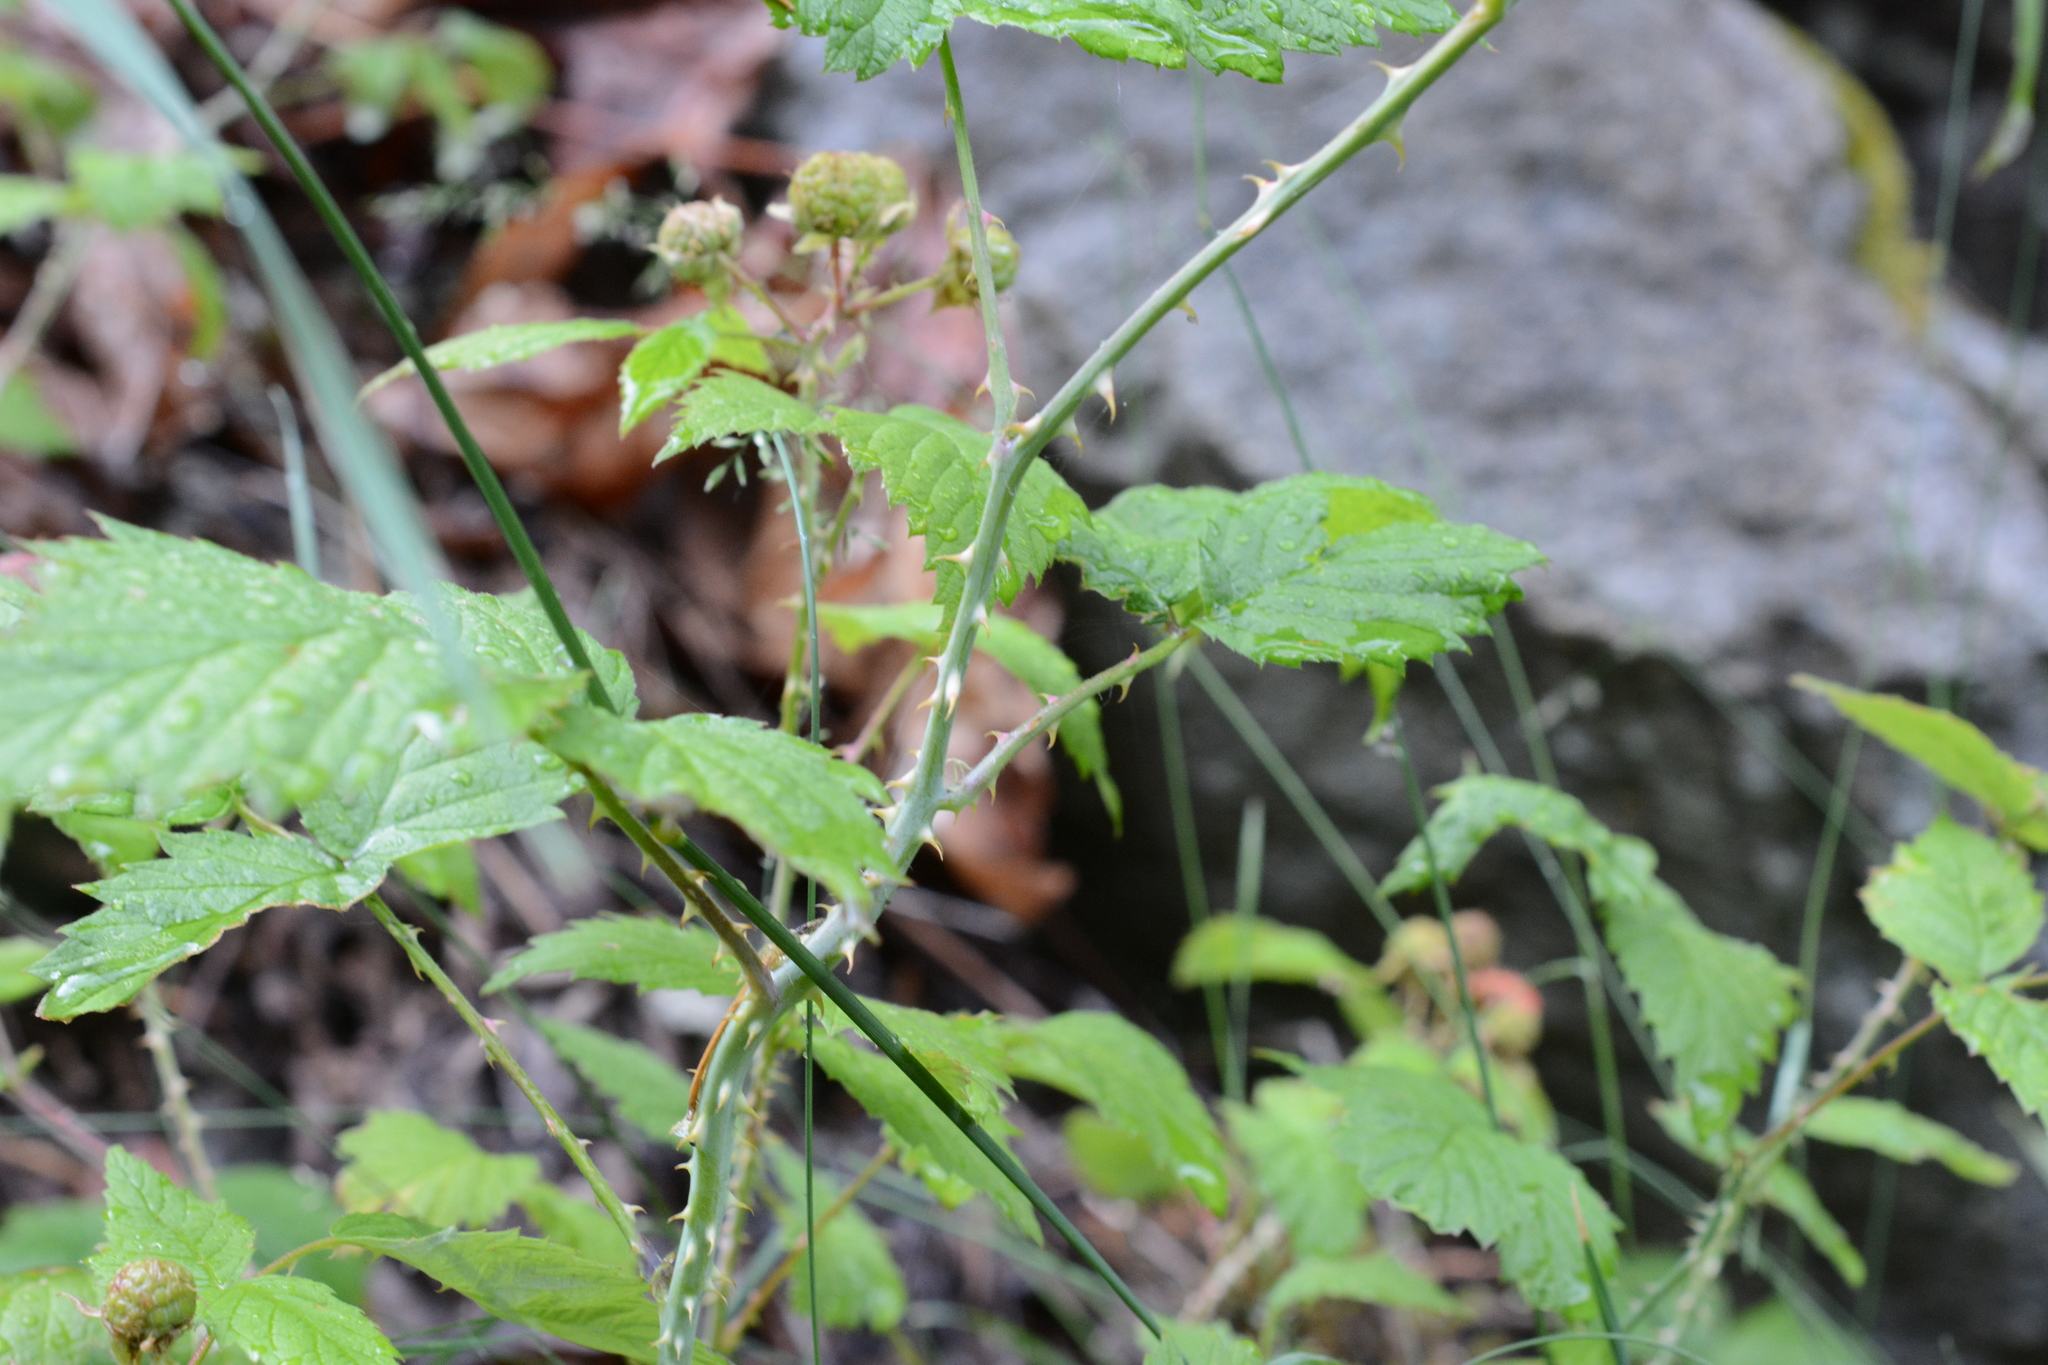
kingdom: Plantae
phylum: Tracheophyta
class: Magnoliopsida
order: Rosales
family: Rosaceae
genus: Rubus
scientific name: Rubus leucodermis
